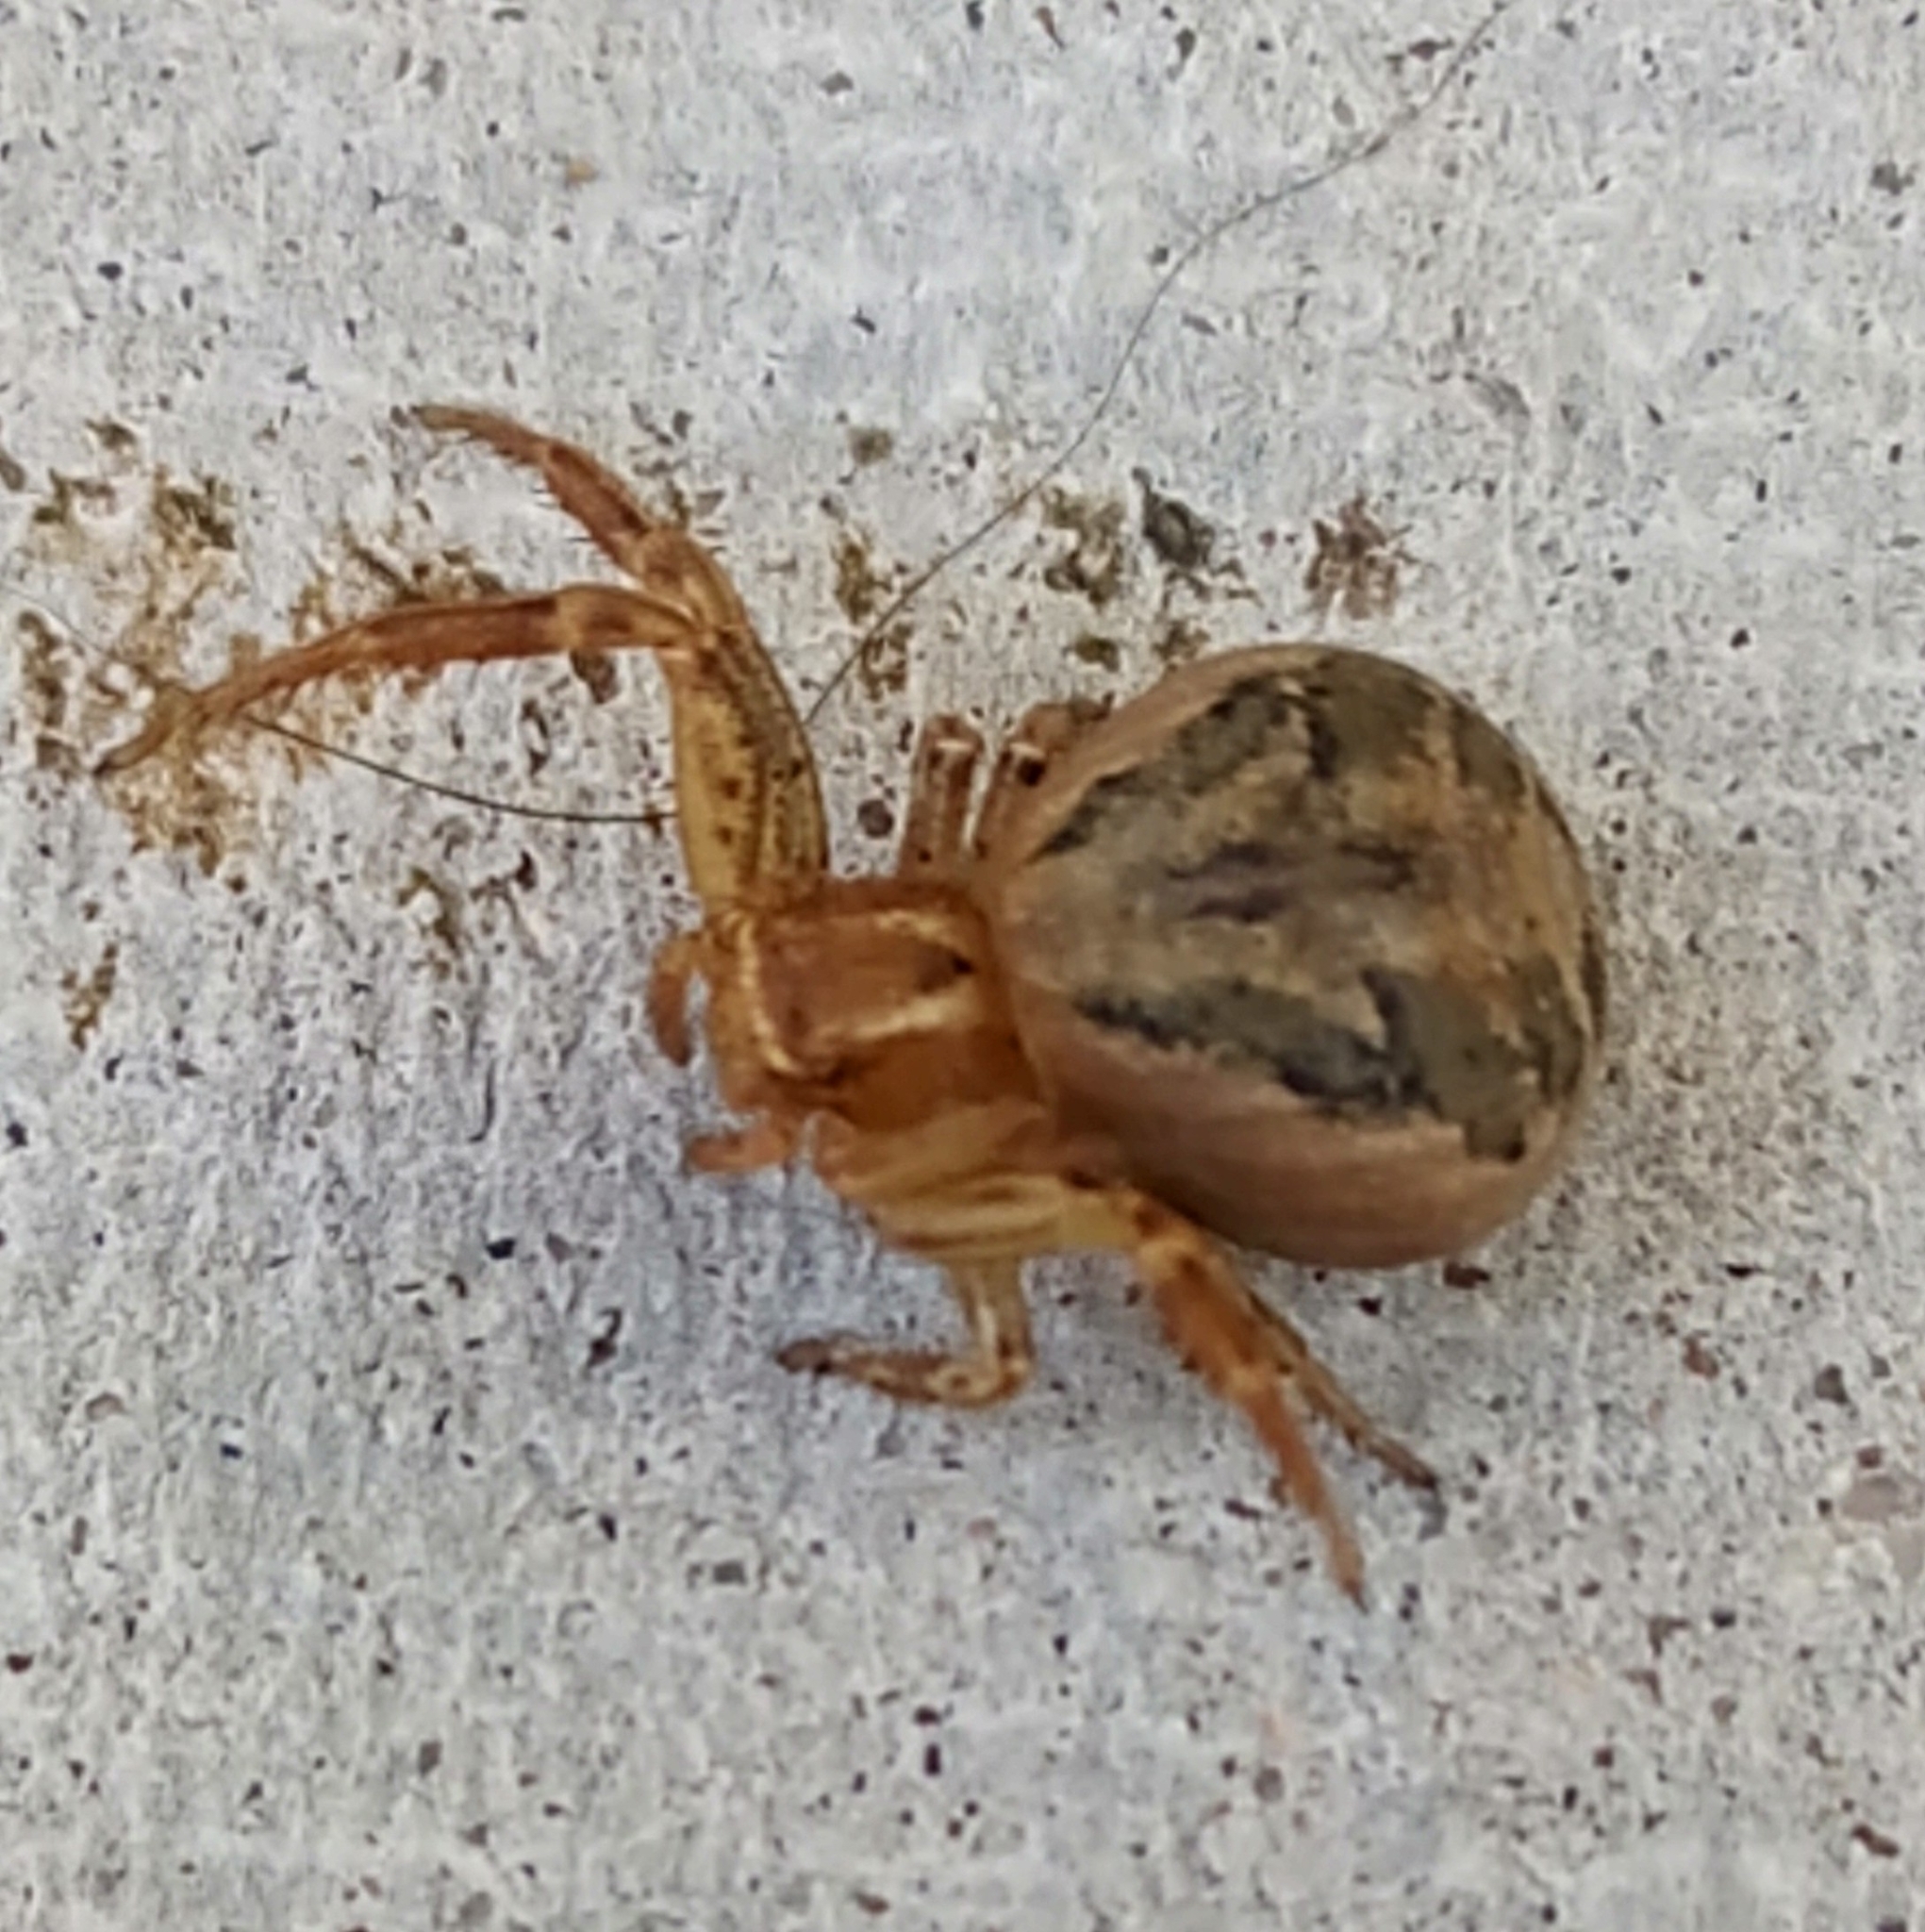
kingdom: Animalia
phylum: Arthropoda
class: Arachnida
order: Araneae
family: Thomisidae
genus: Xysticus
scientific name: Xysticus
